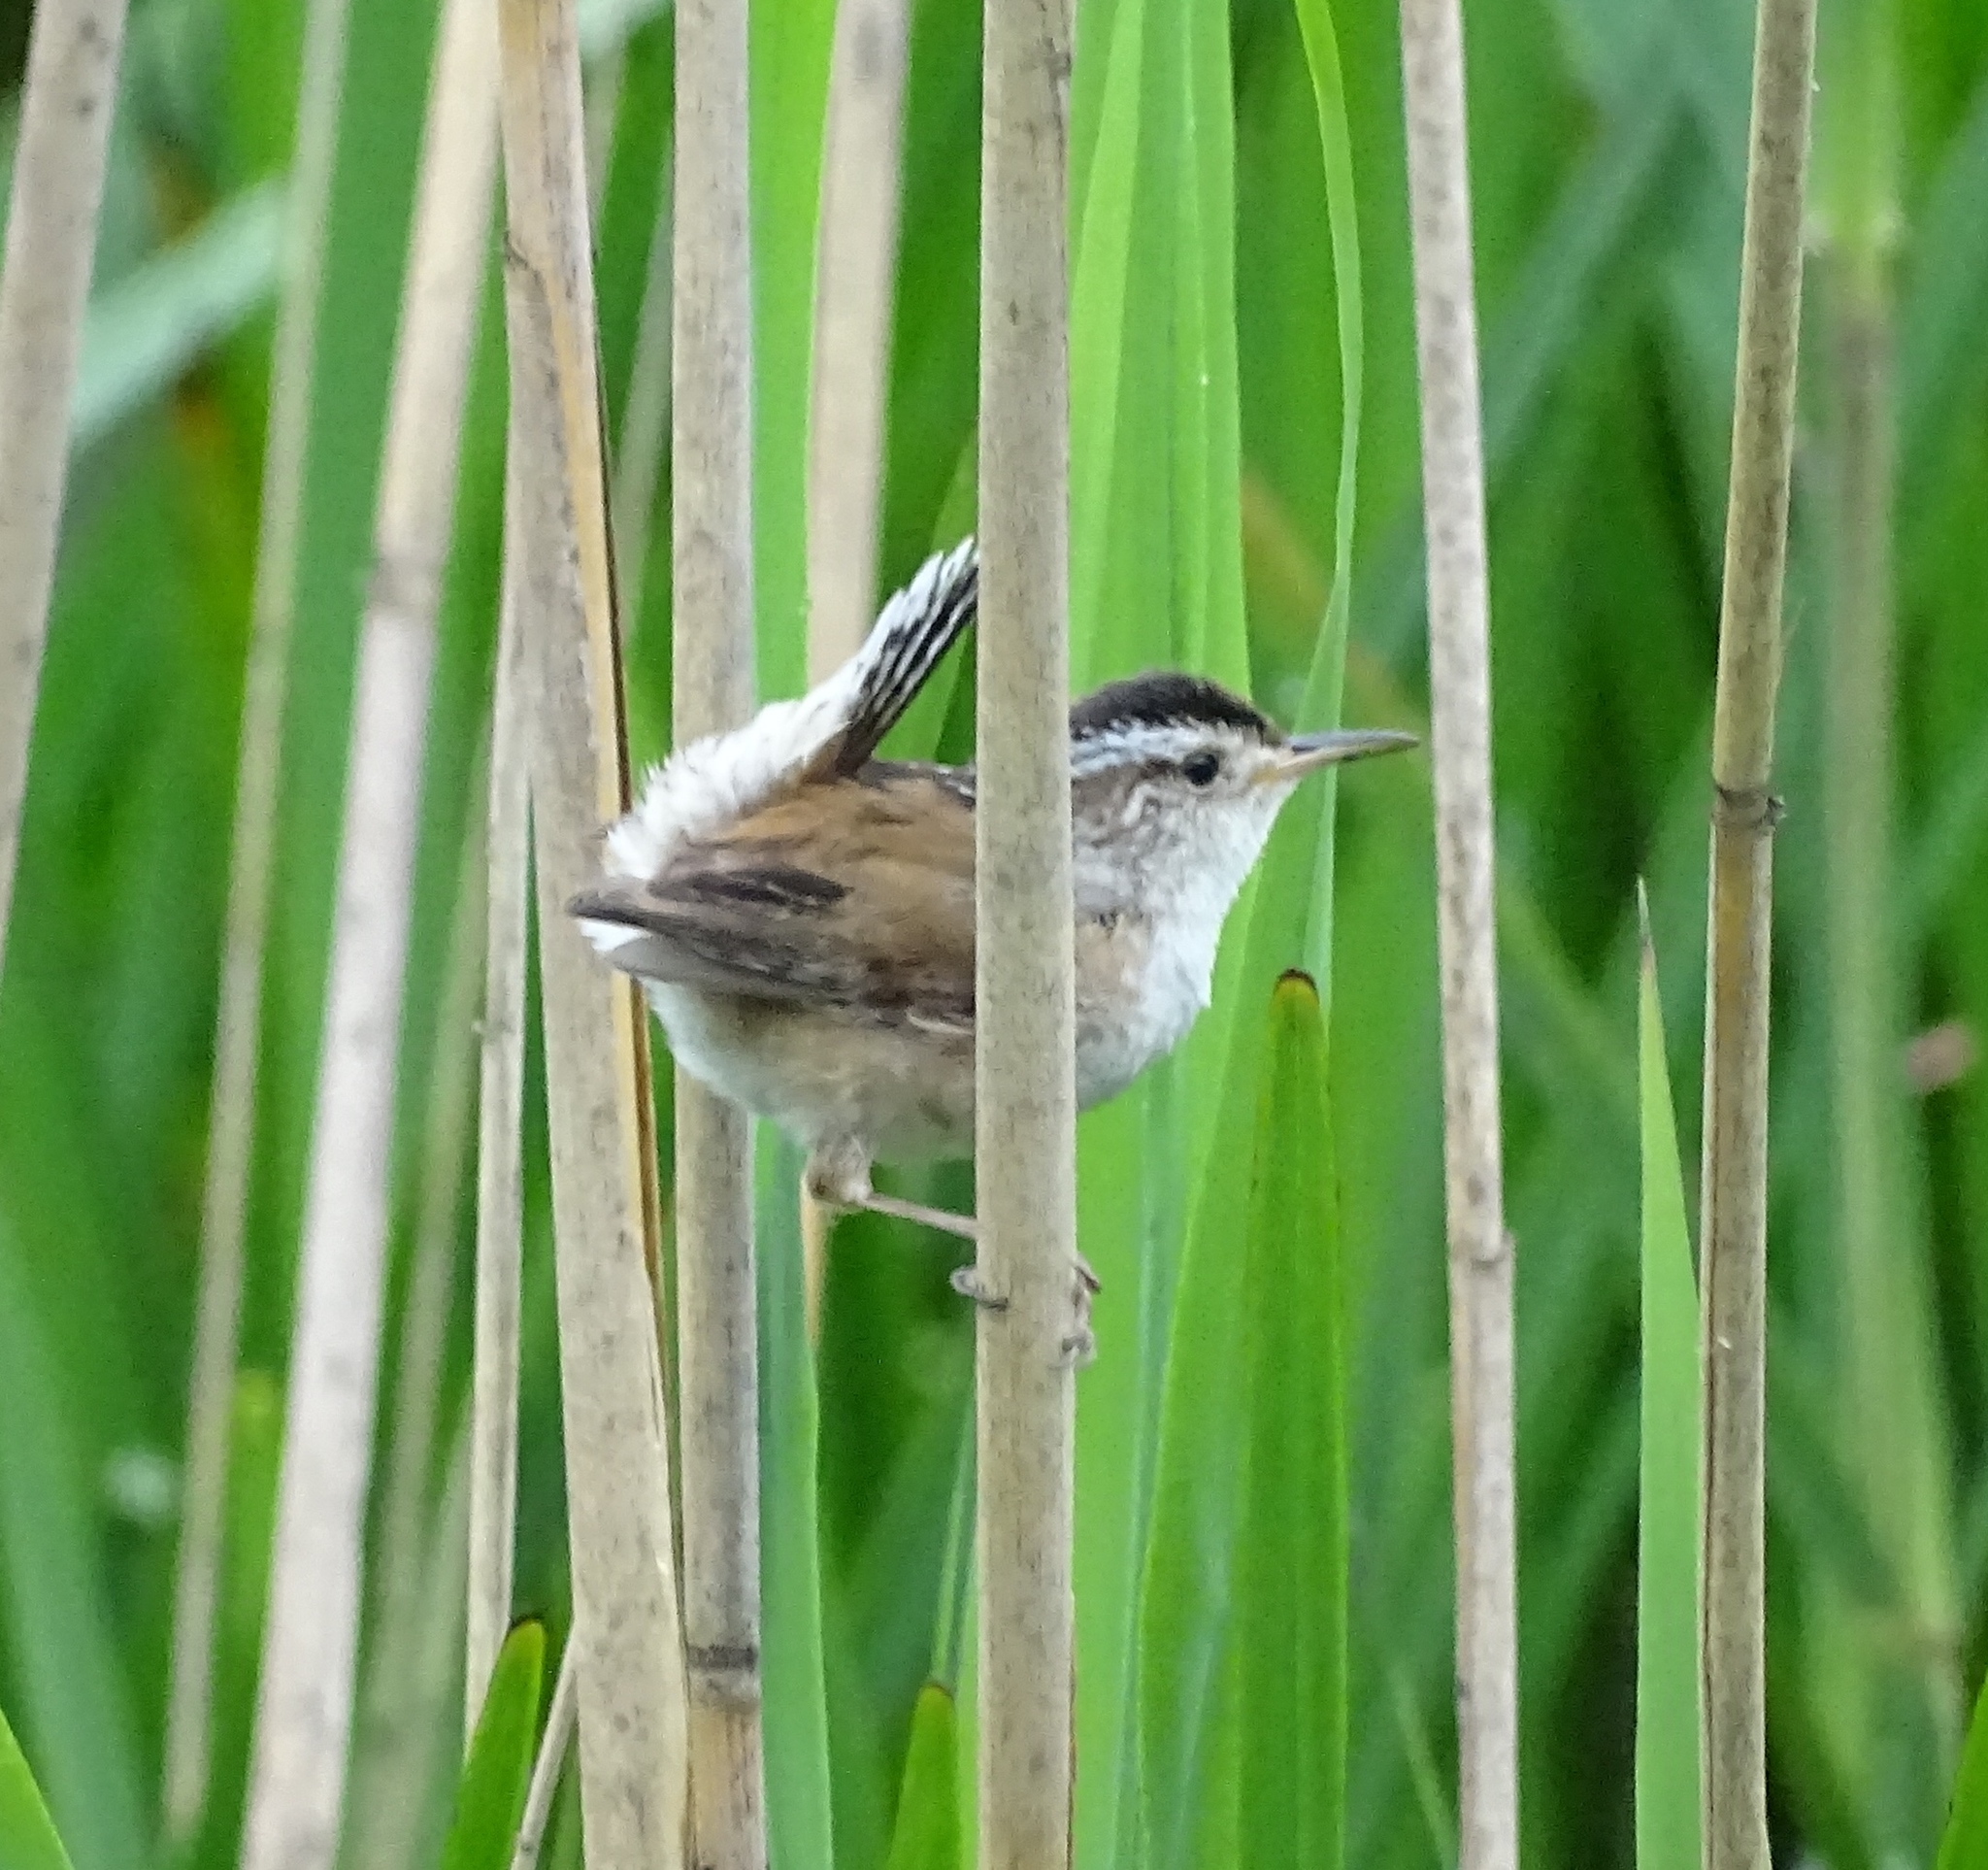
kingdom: Animalia
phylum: Chordata
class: Aves
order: Passeriformes
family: Troglodytidae
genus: Cistothorus
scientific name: Cistothorus palustris
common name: Marsh wren
